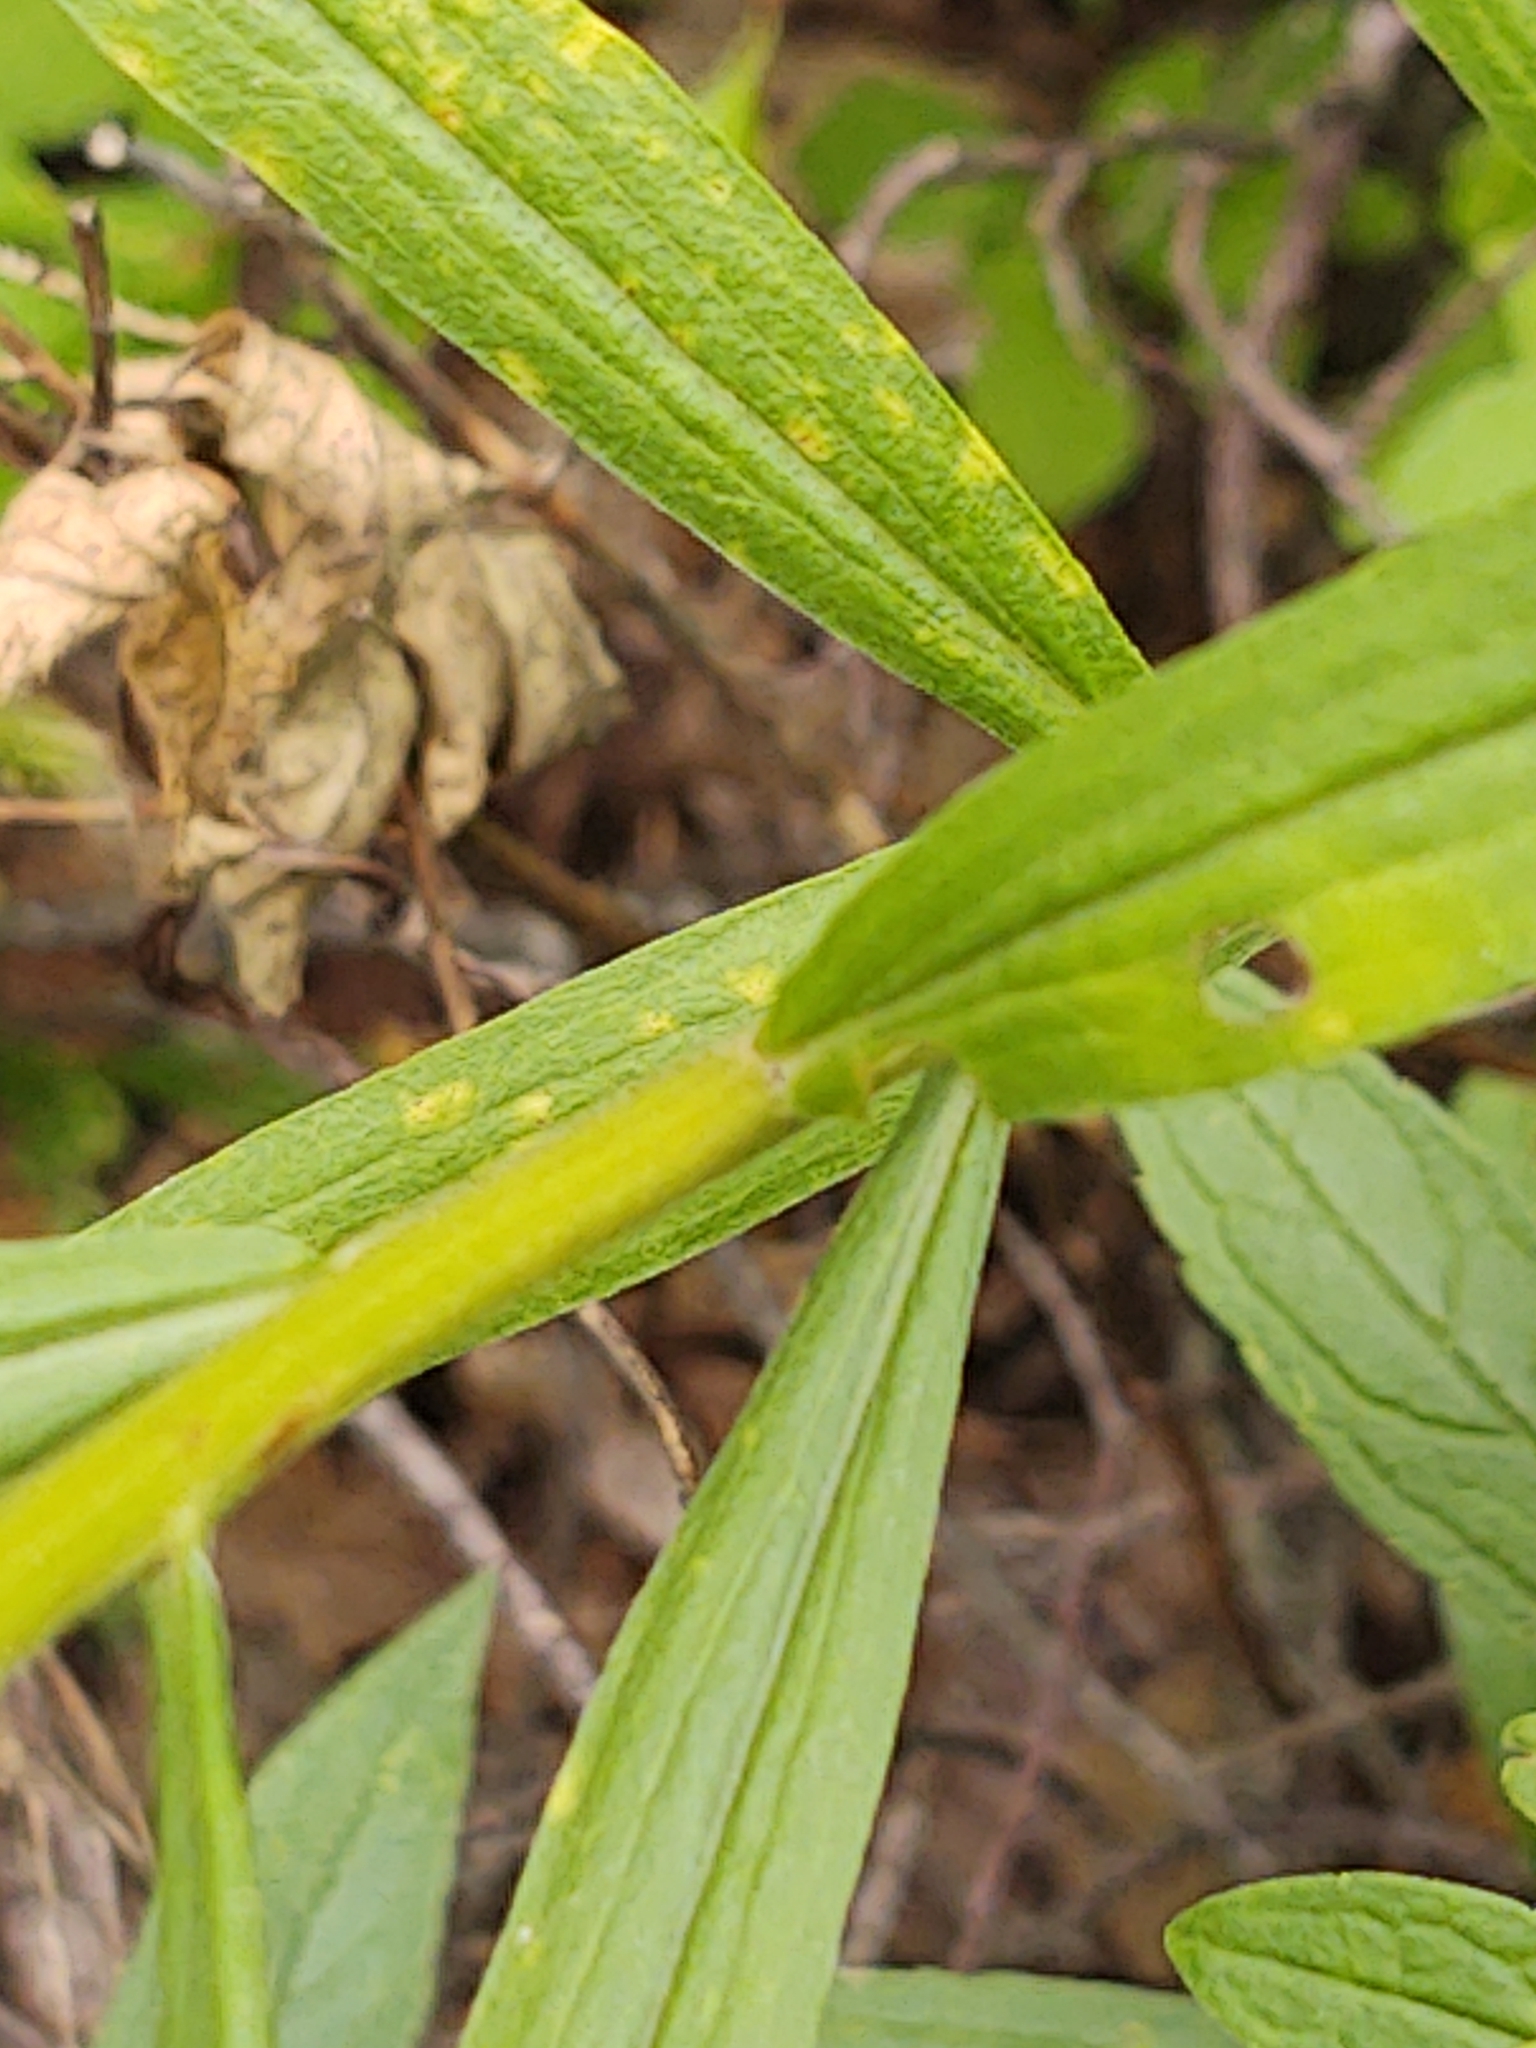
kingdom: Plantae
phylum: Tracheophyta
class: Magnoliopsida
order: Asterales
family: Asteraceae
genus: Euthamia
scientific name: Euthamia graminifolia
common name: Common goldentop
